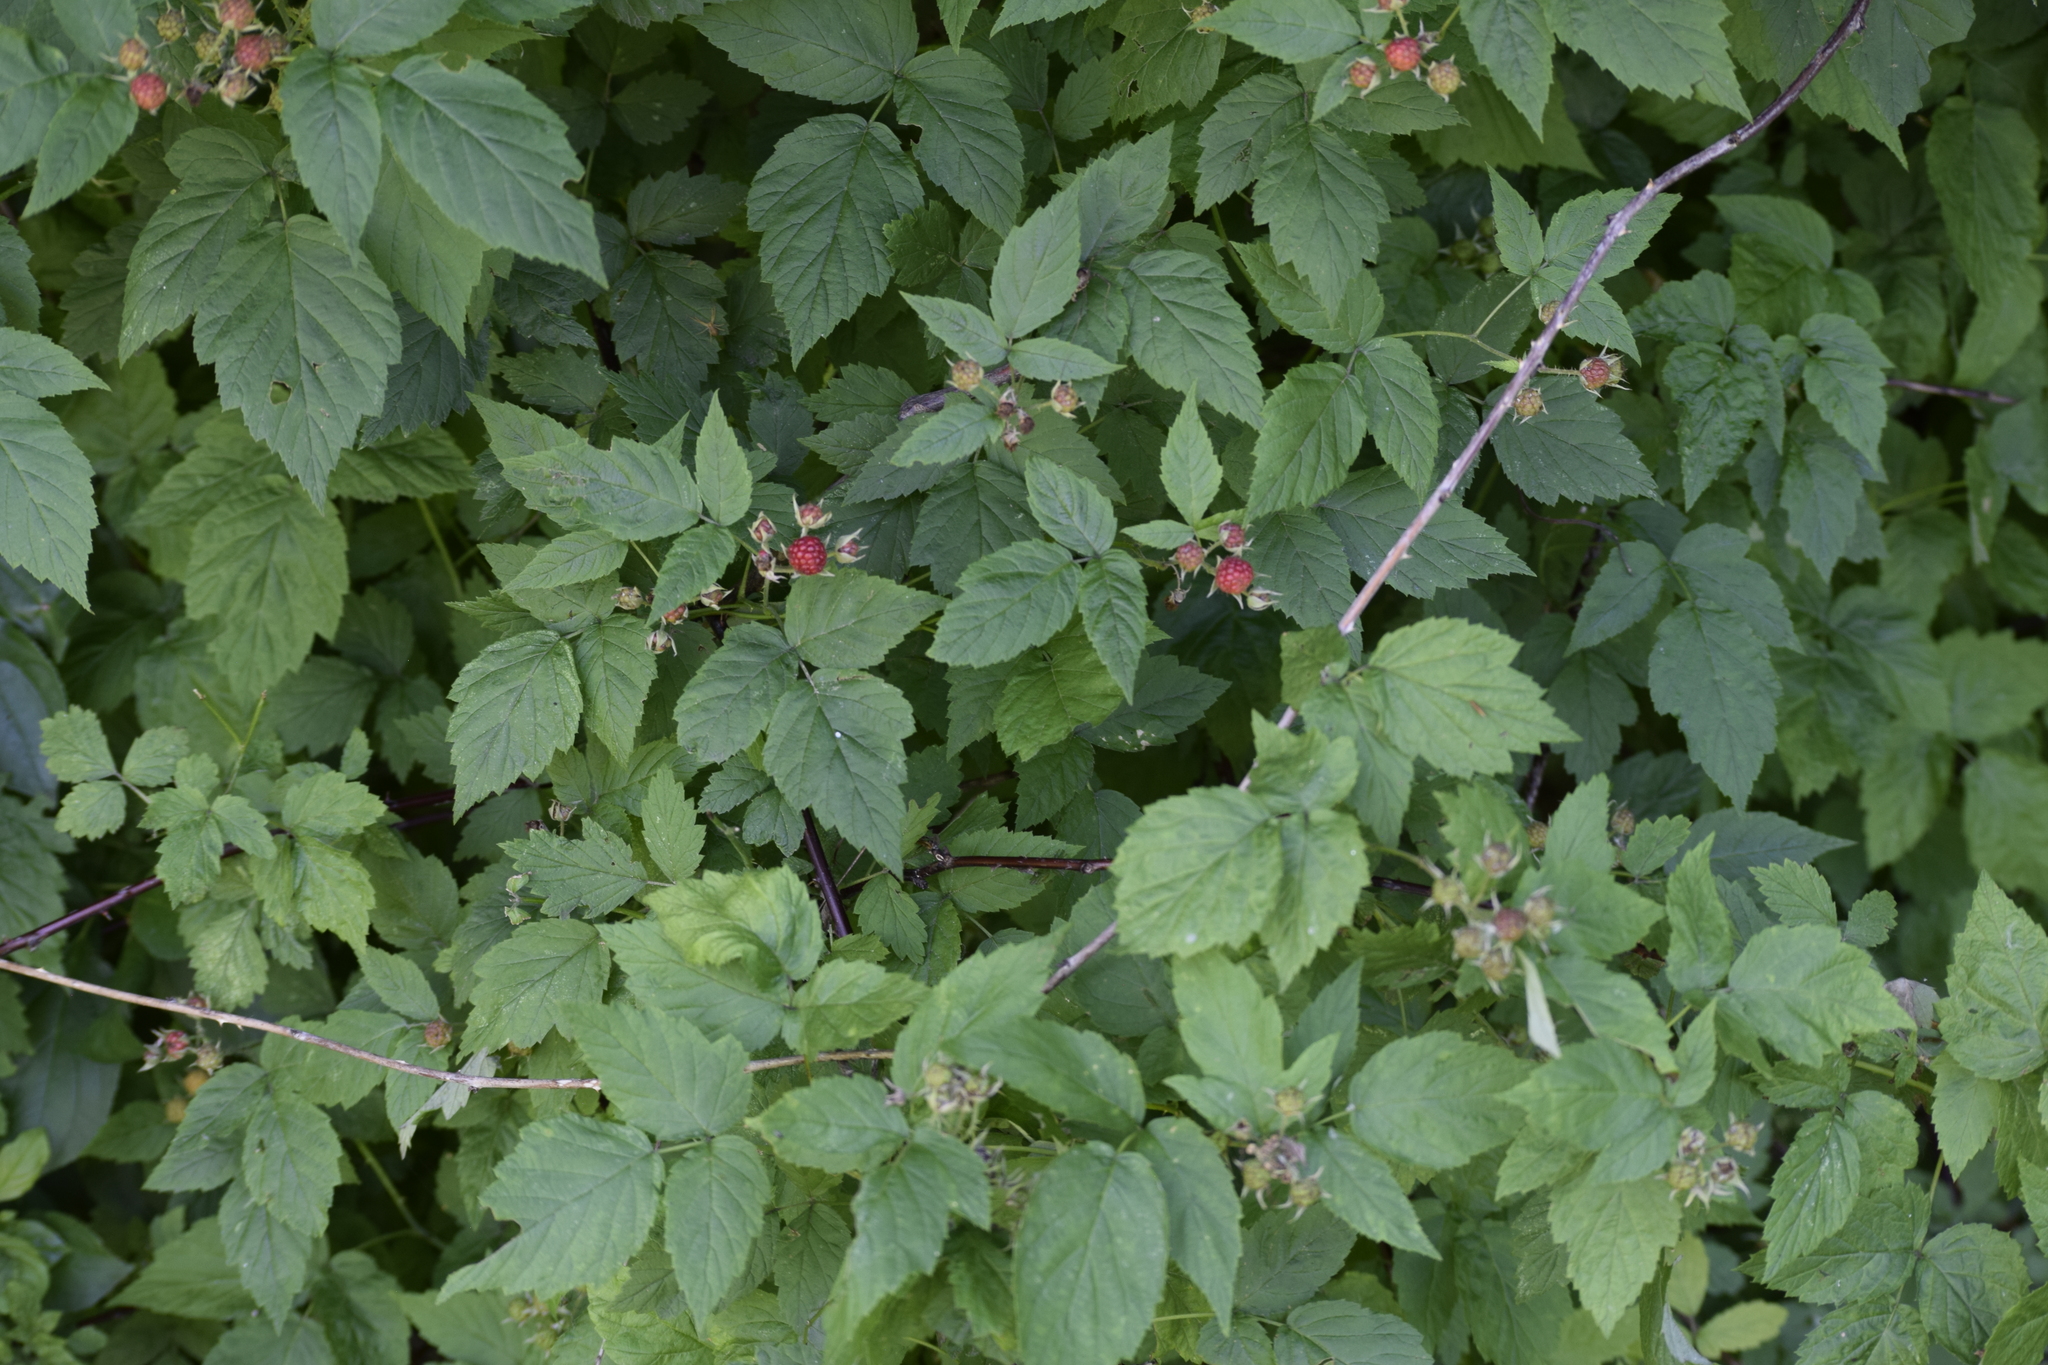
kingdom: Plantae
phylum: Tracheophyta
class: Magnoliopsida
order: Rosales
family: Rosaceae
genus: Rubus
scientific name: Rubus occidentalis
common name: Black raspberry
